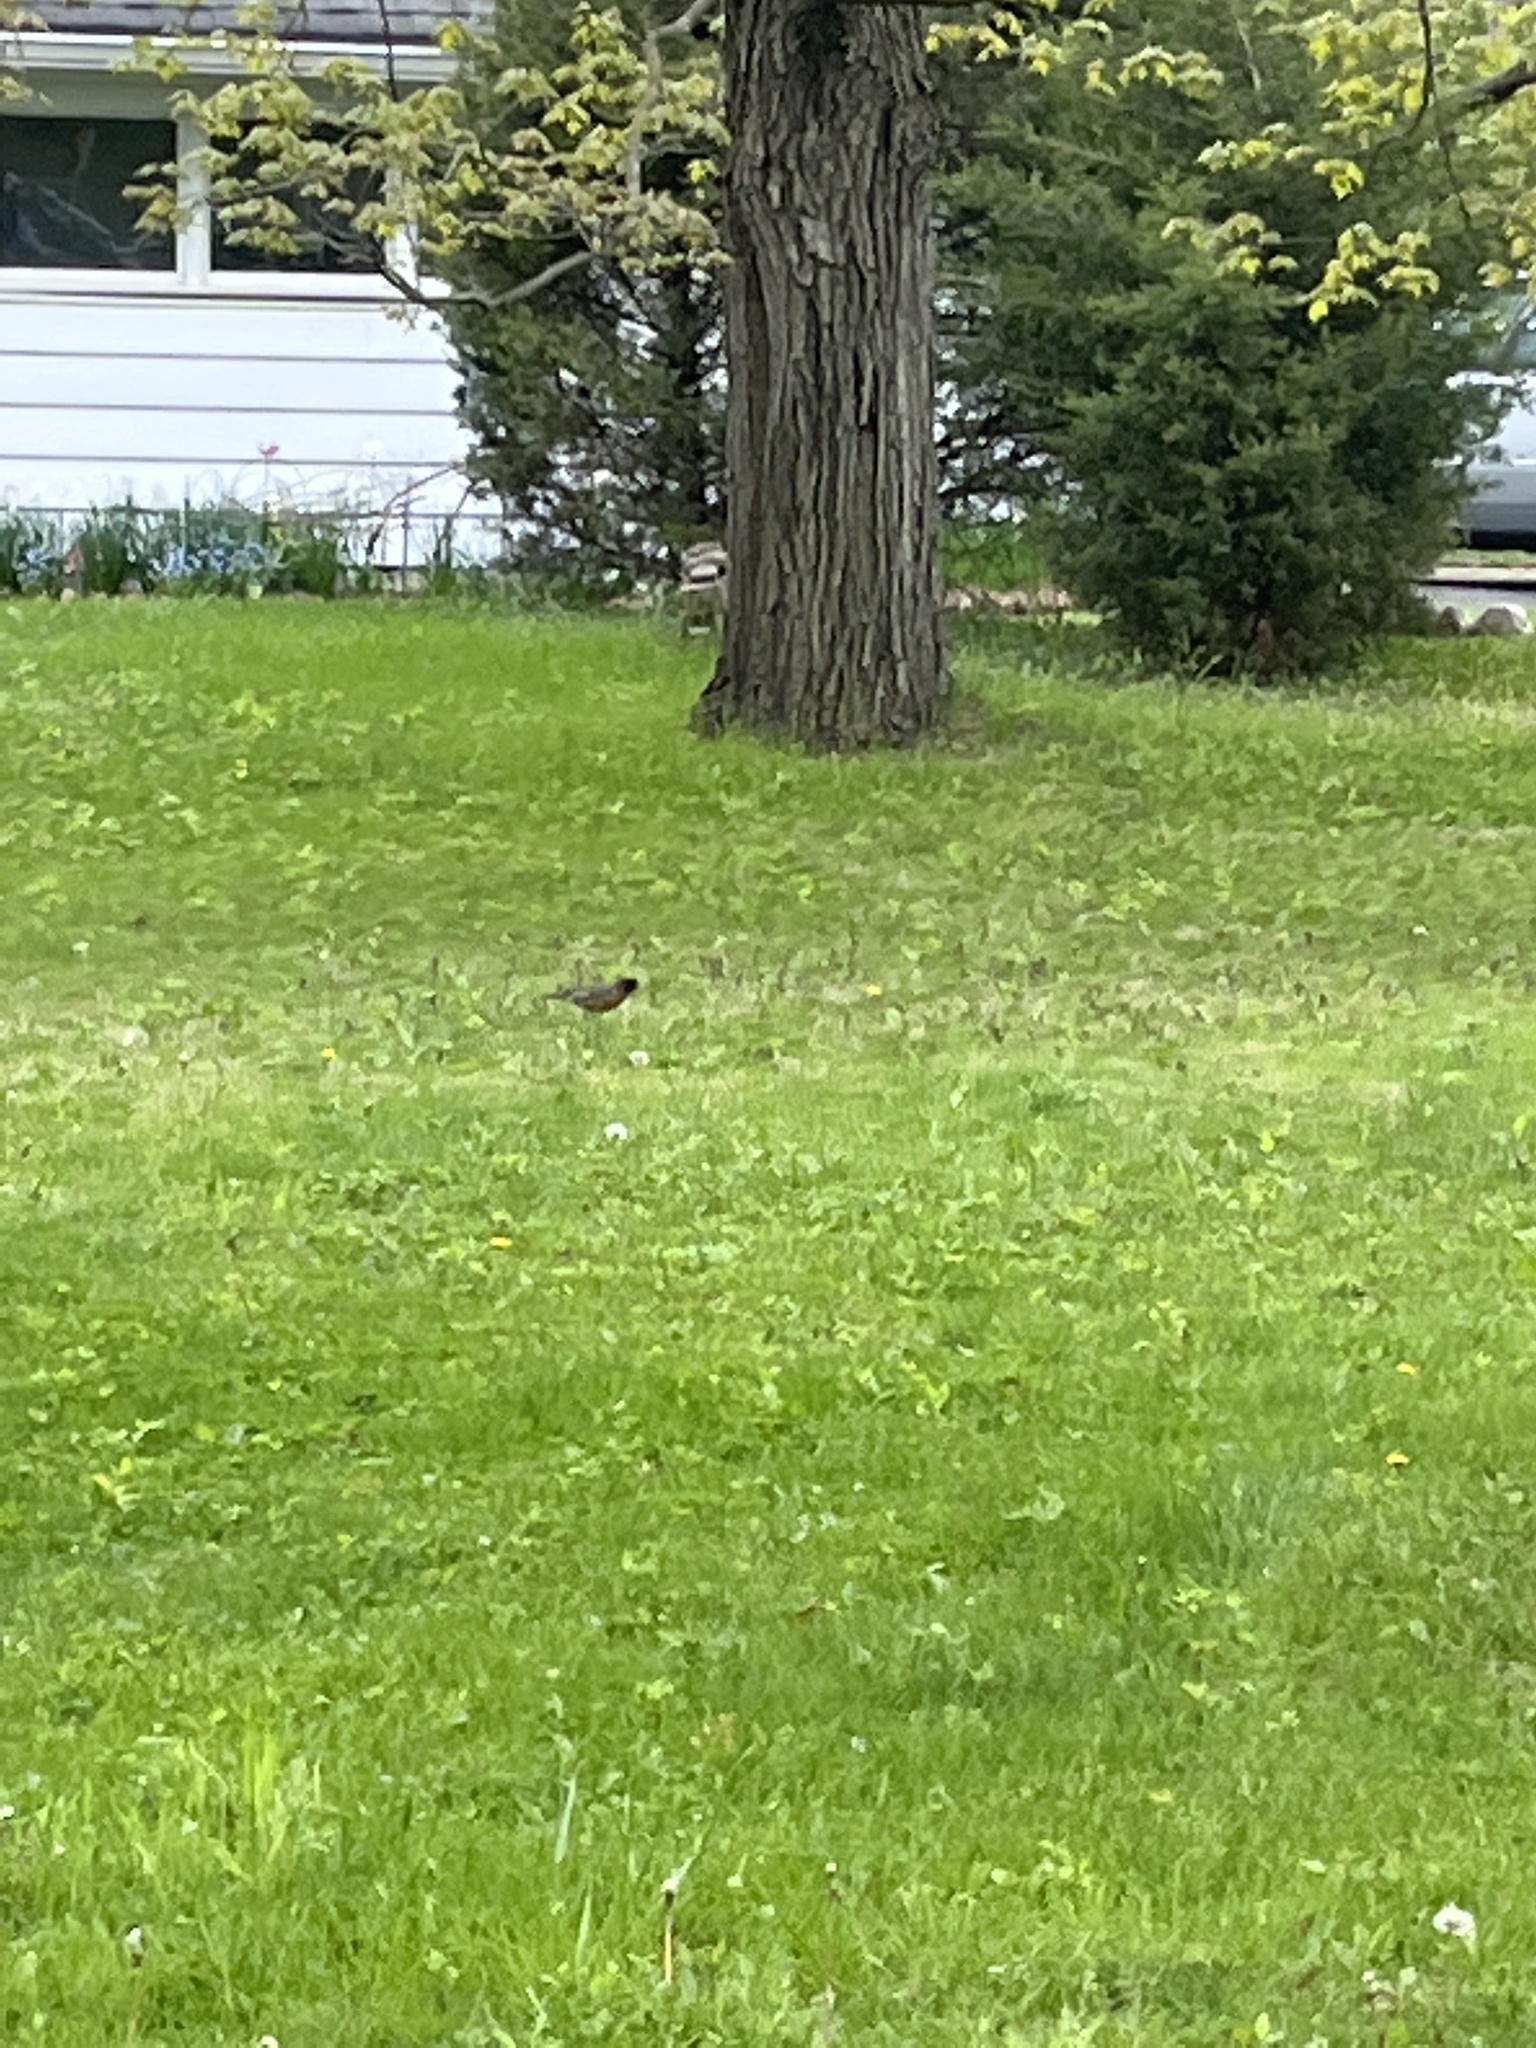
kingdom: Animalia
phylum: Chordata
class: Aves
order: Passeriformes
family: Turdidae
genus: Turdus
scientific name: Turdus migratorius
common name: American robin
